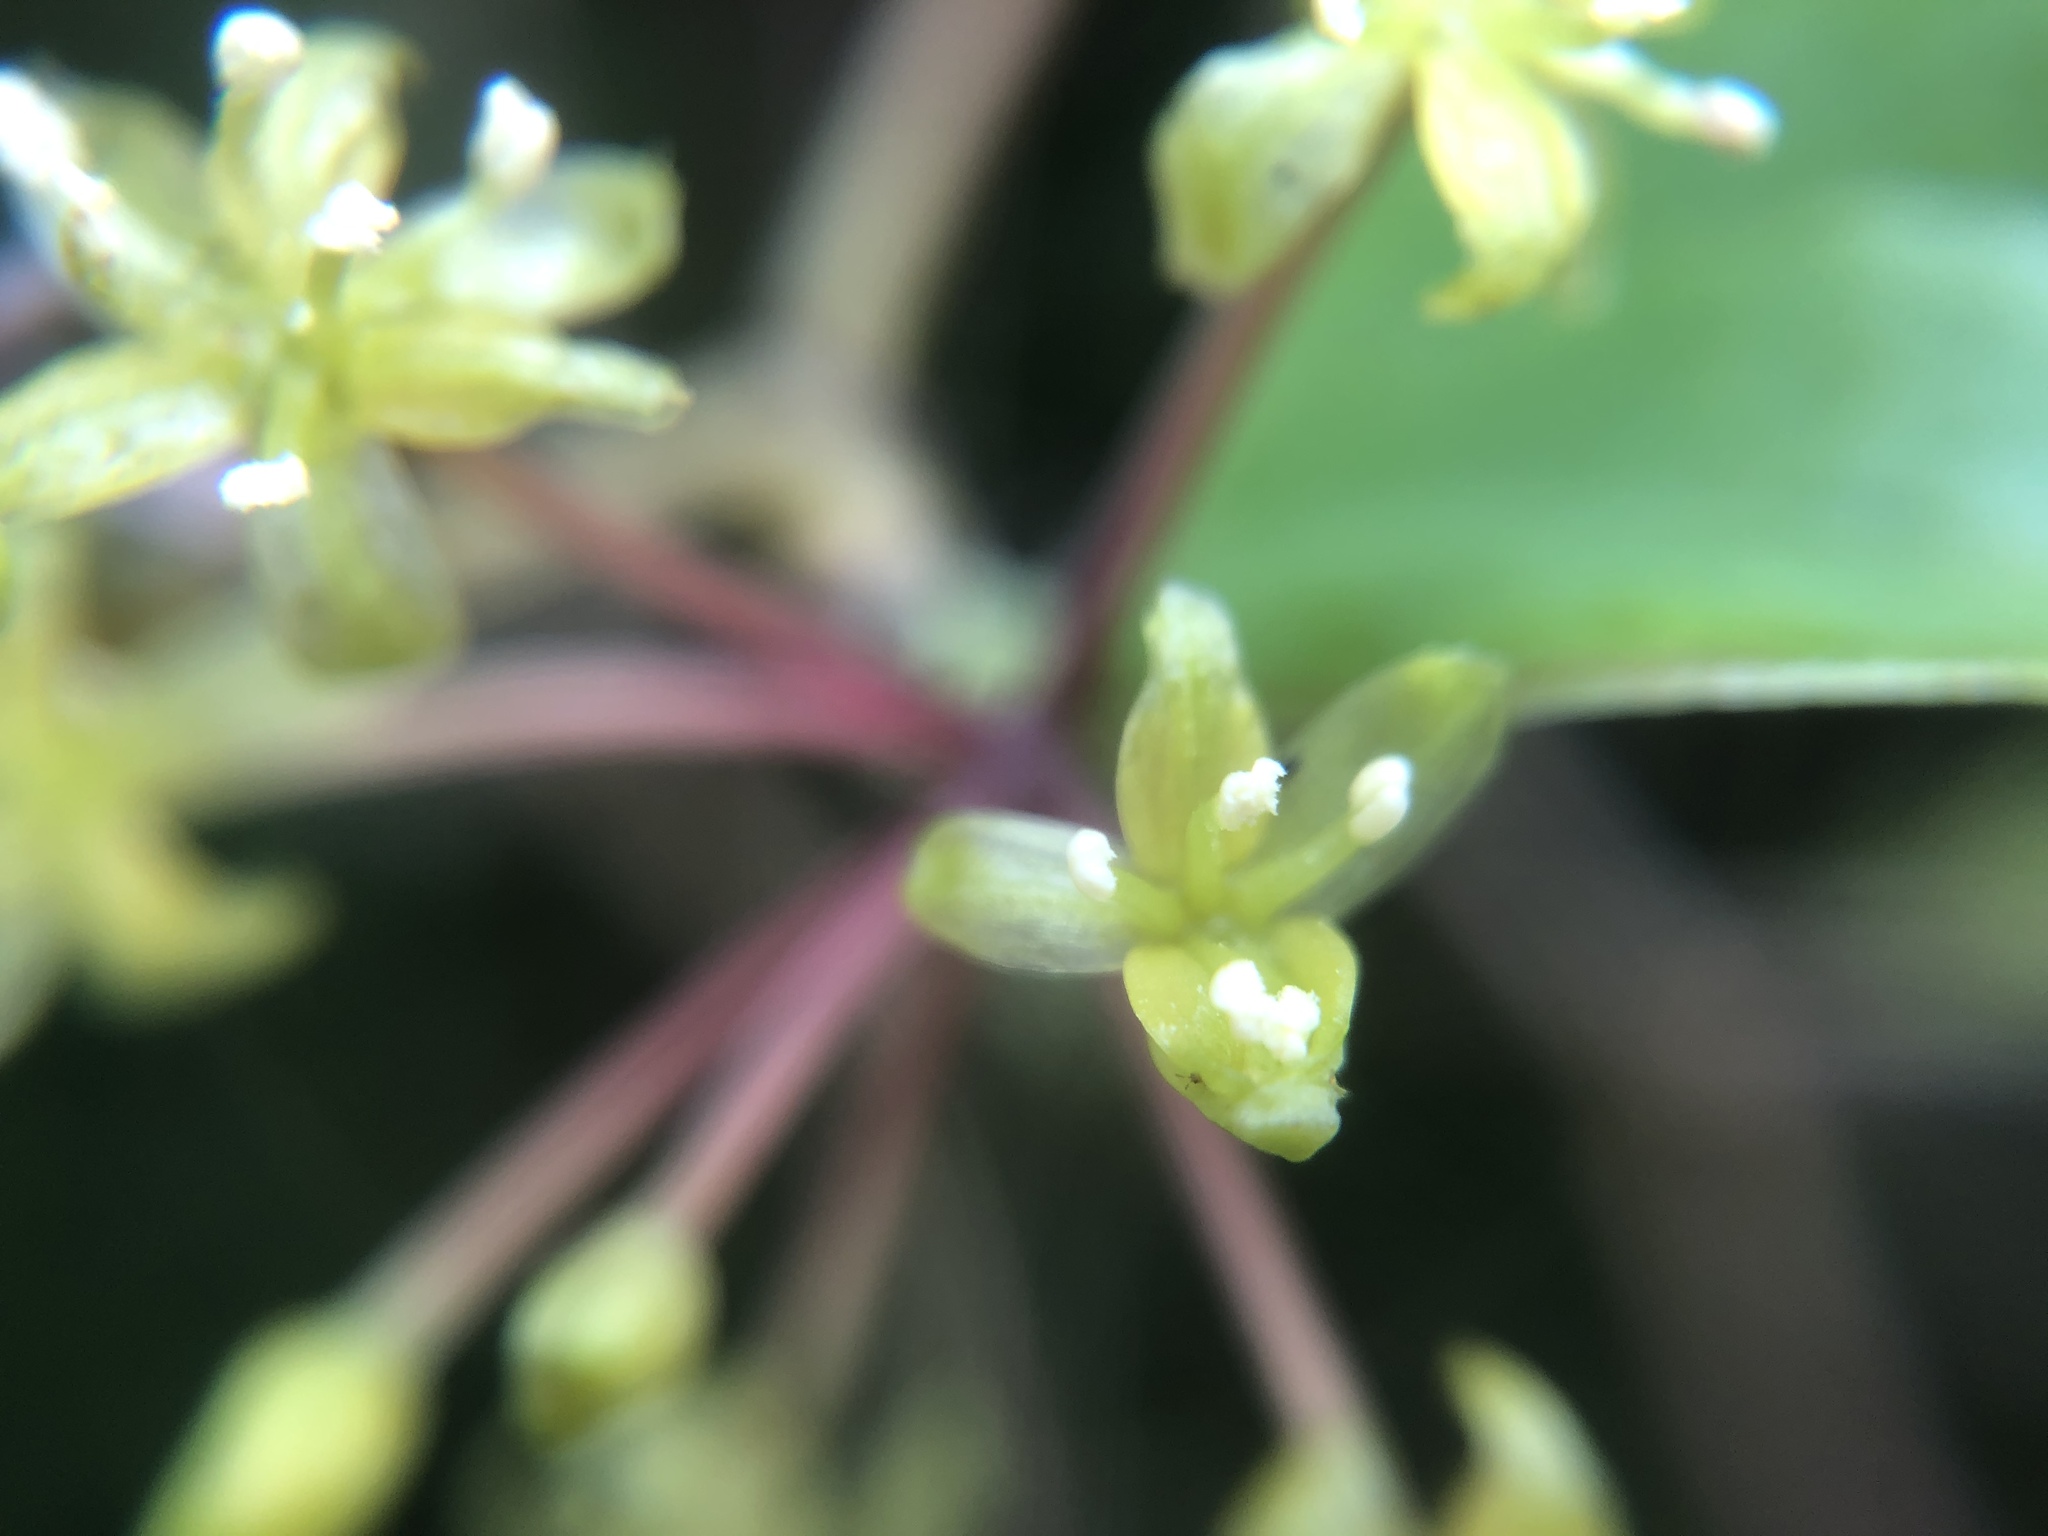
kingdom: Plantae
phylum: Tracheophyta
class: Liliopsida
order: Liliales
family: Smilacaceae
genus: Smilax
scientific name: Smilax china
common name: Chinaroot
